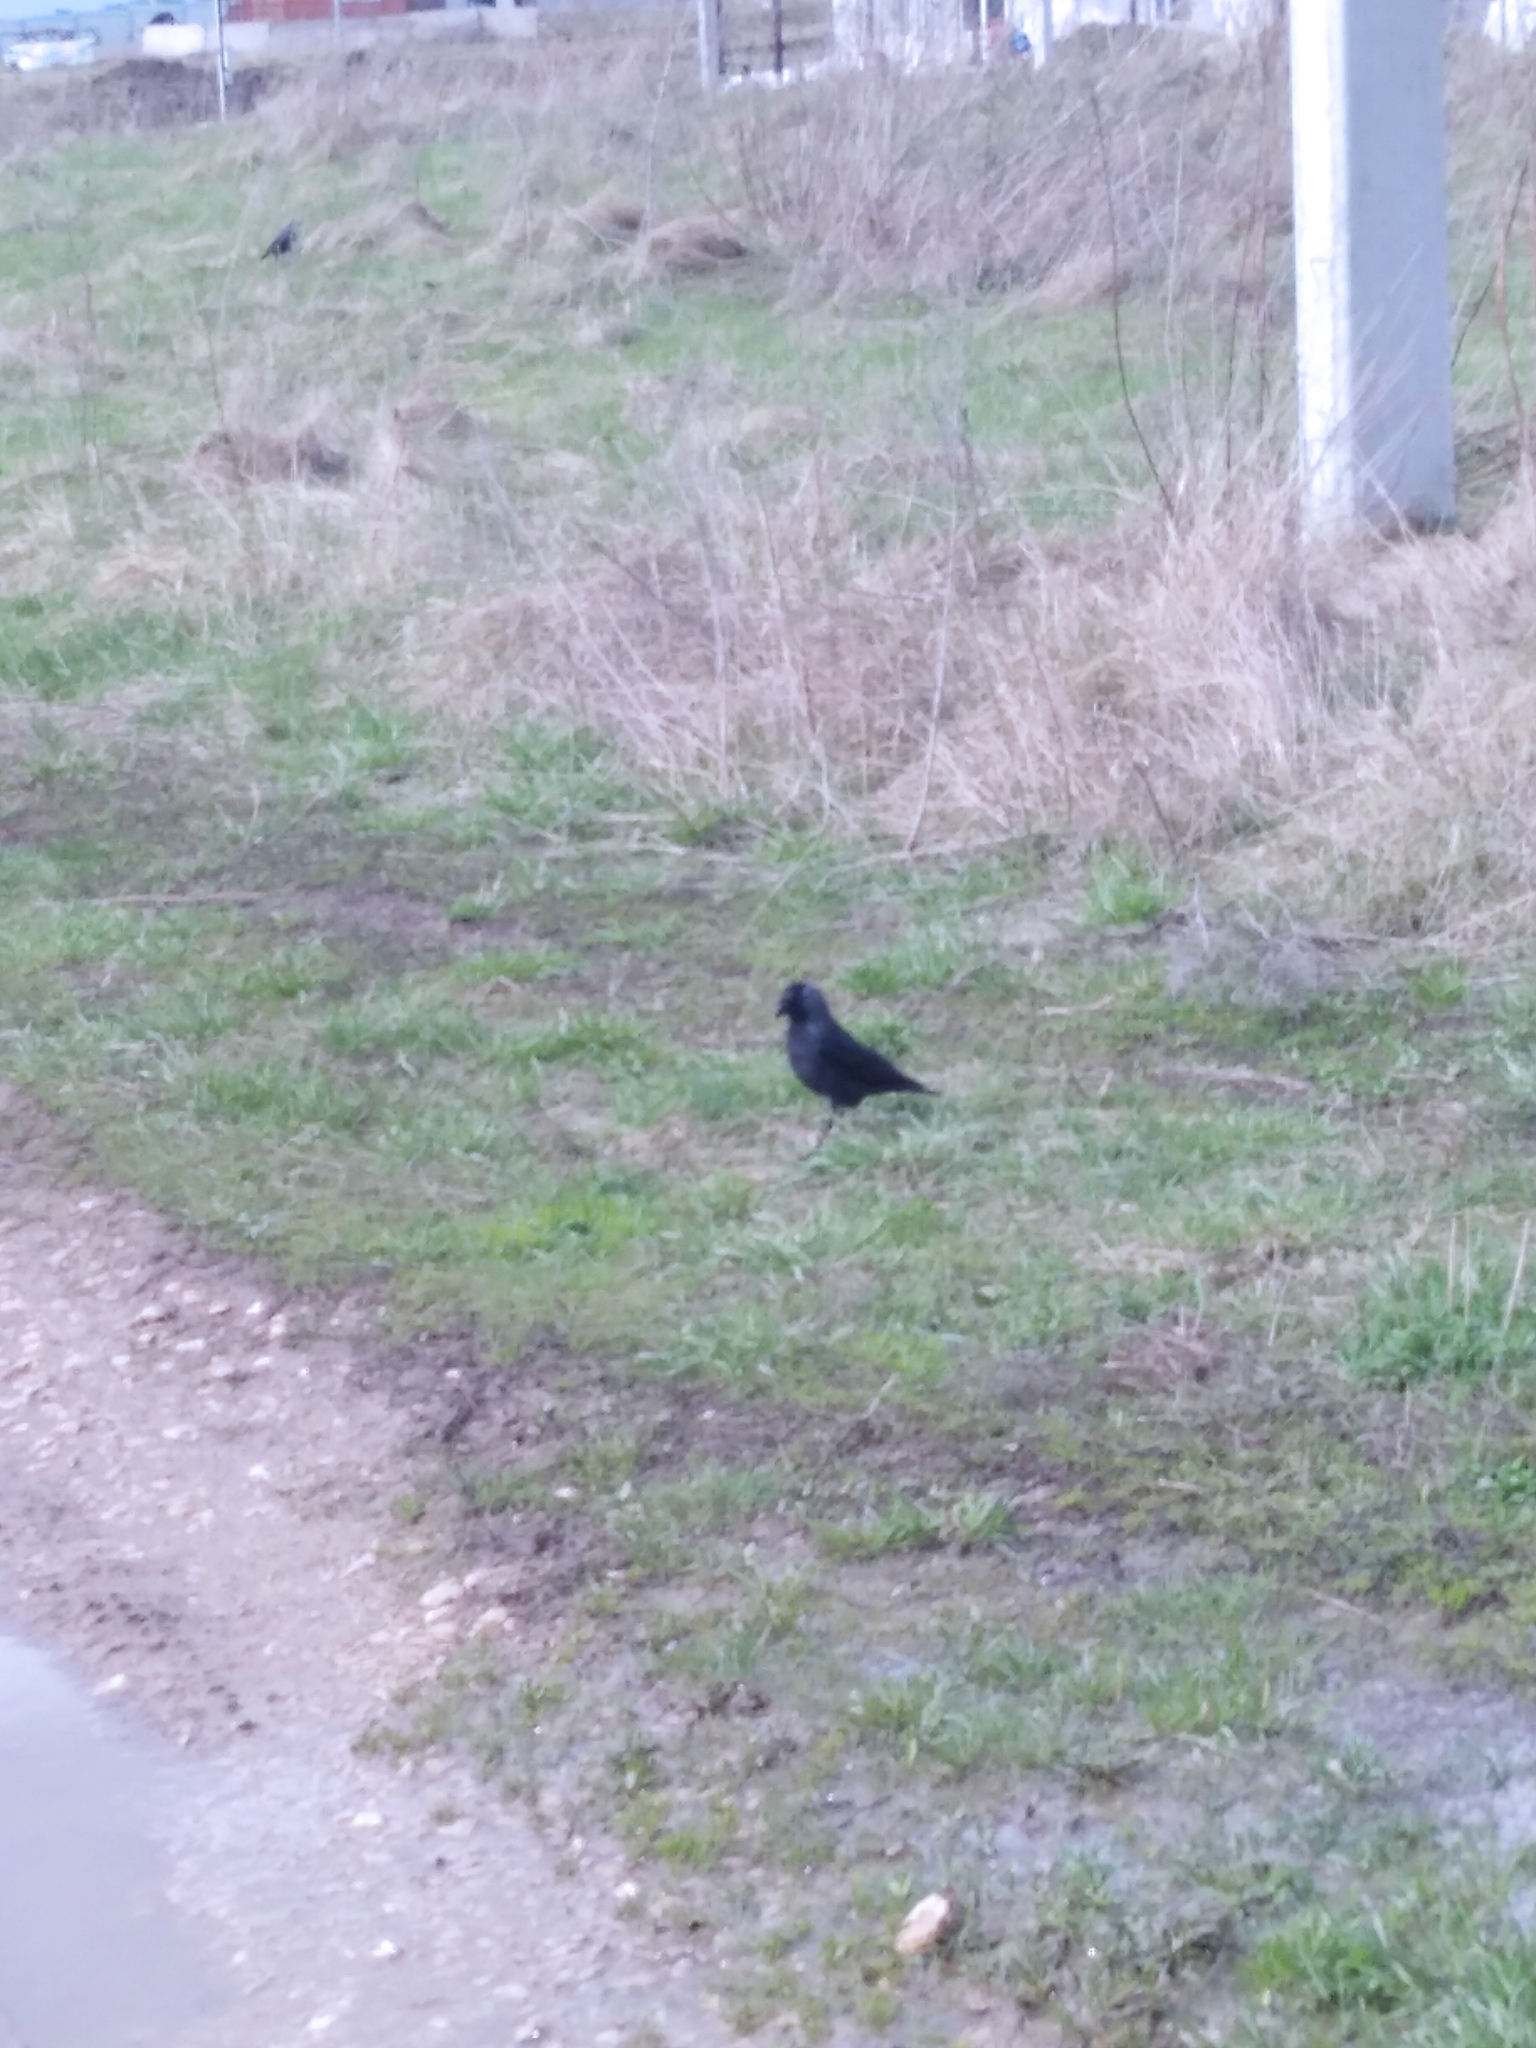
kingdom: Animalia
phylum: Chordata
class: Aves
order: Passeriformes
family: Corvidae
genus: Coloeus
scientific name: Coloeus monedula
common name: Western jackdaw
